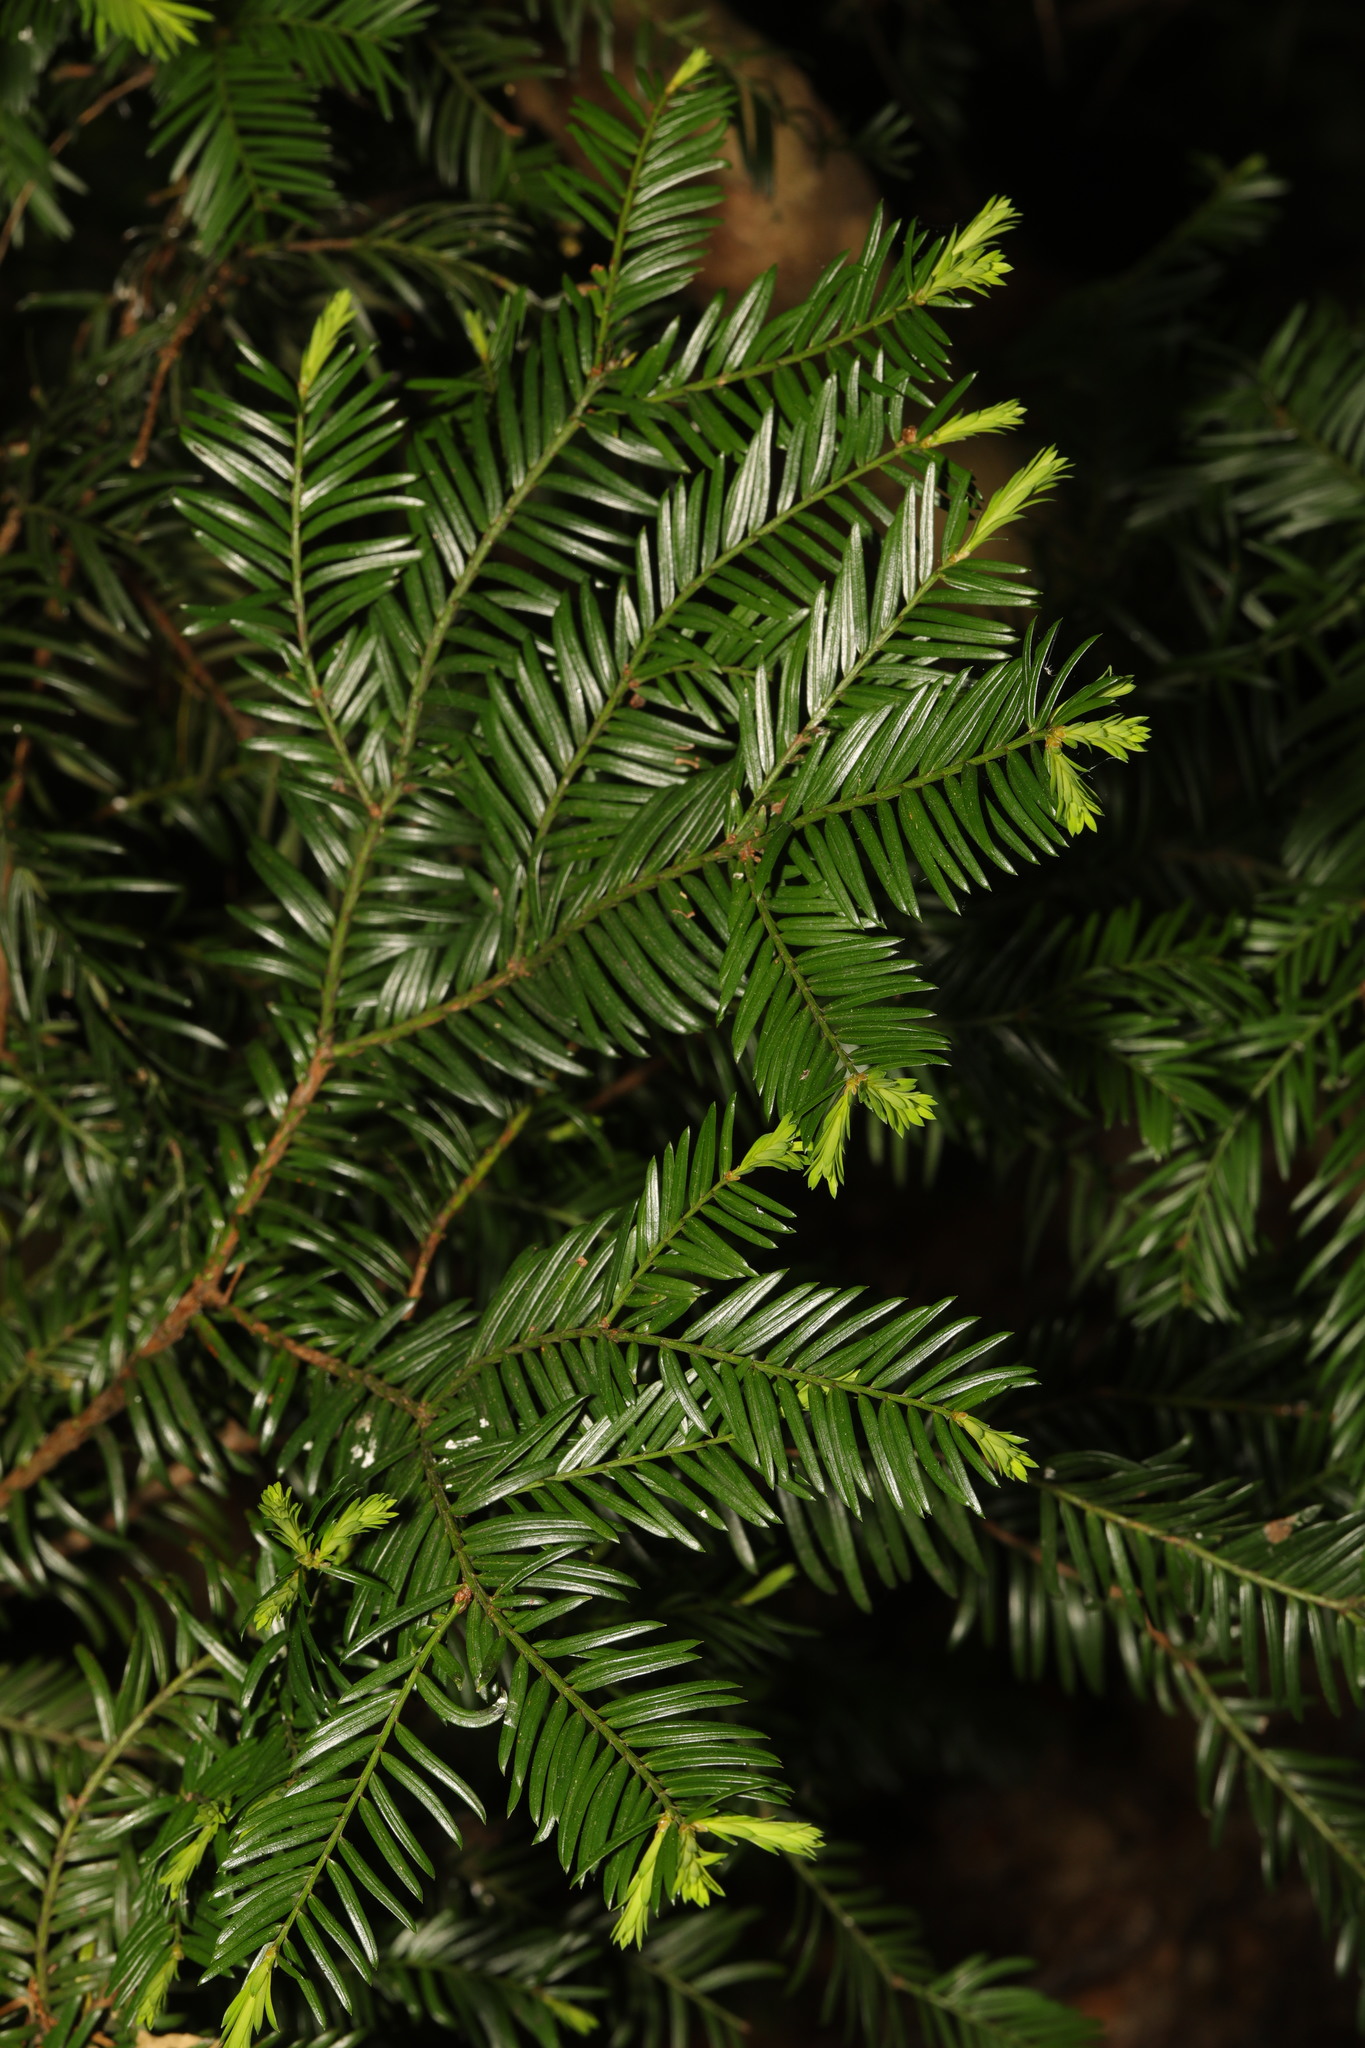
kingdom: Plantae
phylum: Tracheophyta
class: Pinopsida
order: Pinales
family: Taxaceae
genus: Taxus
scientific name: Taxus baccata
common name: Yew
